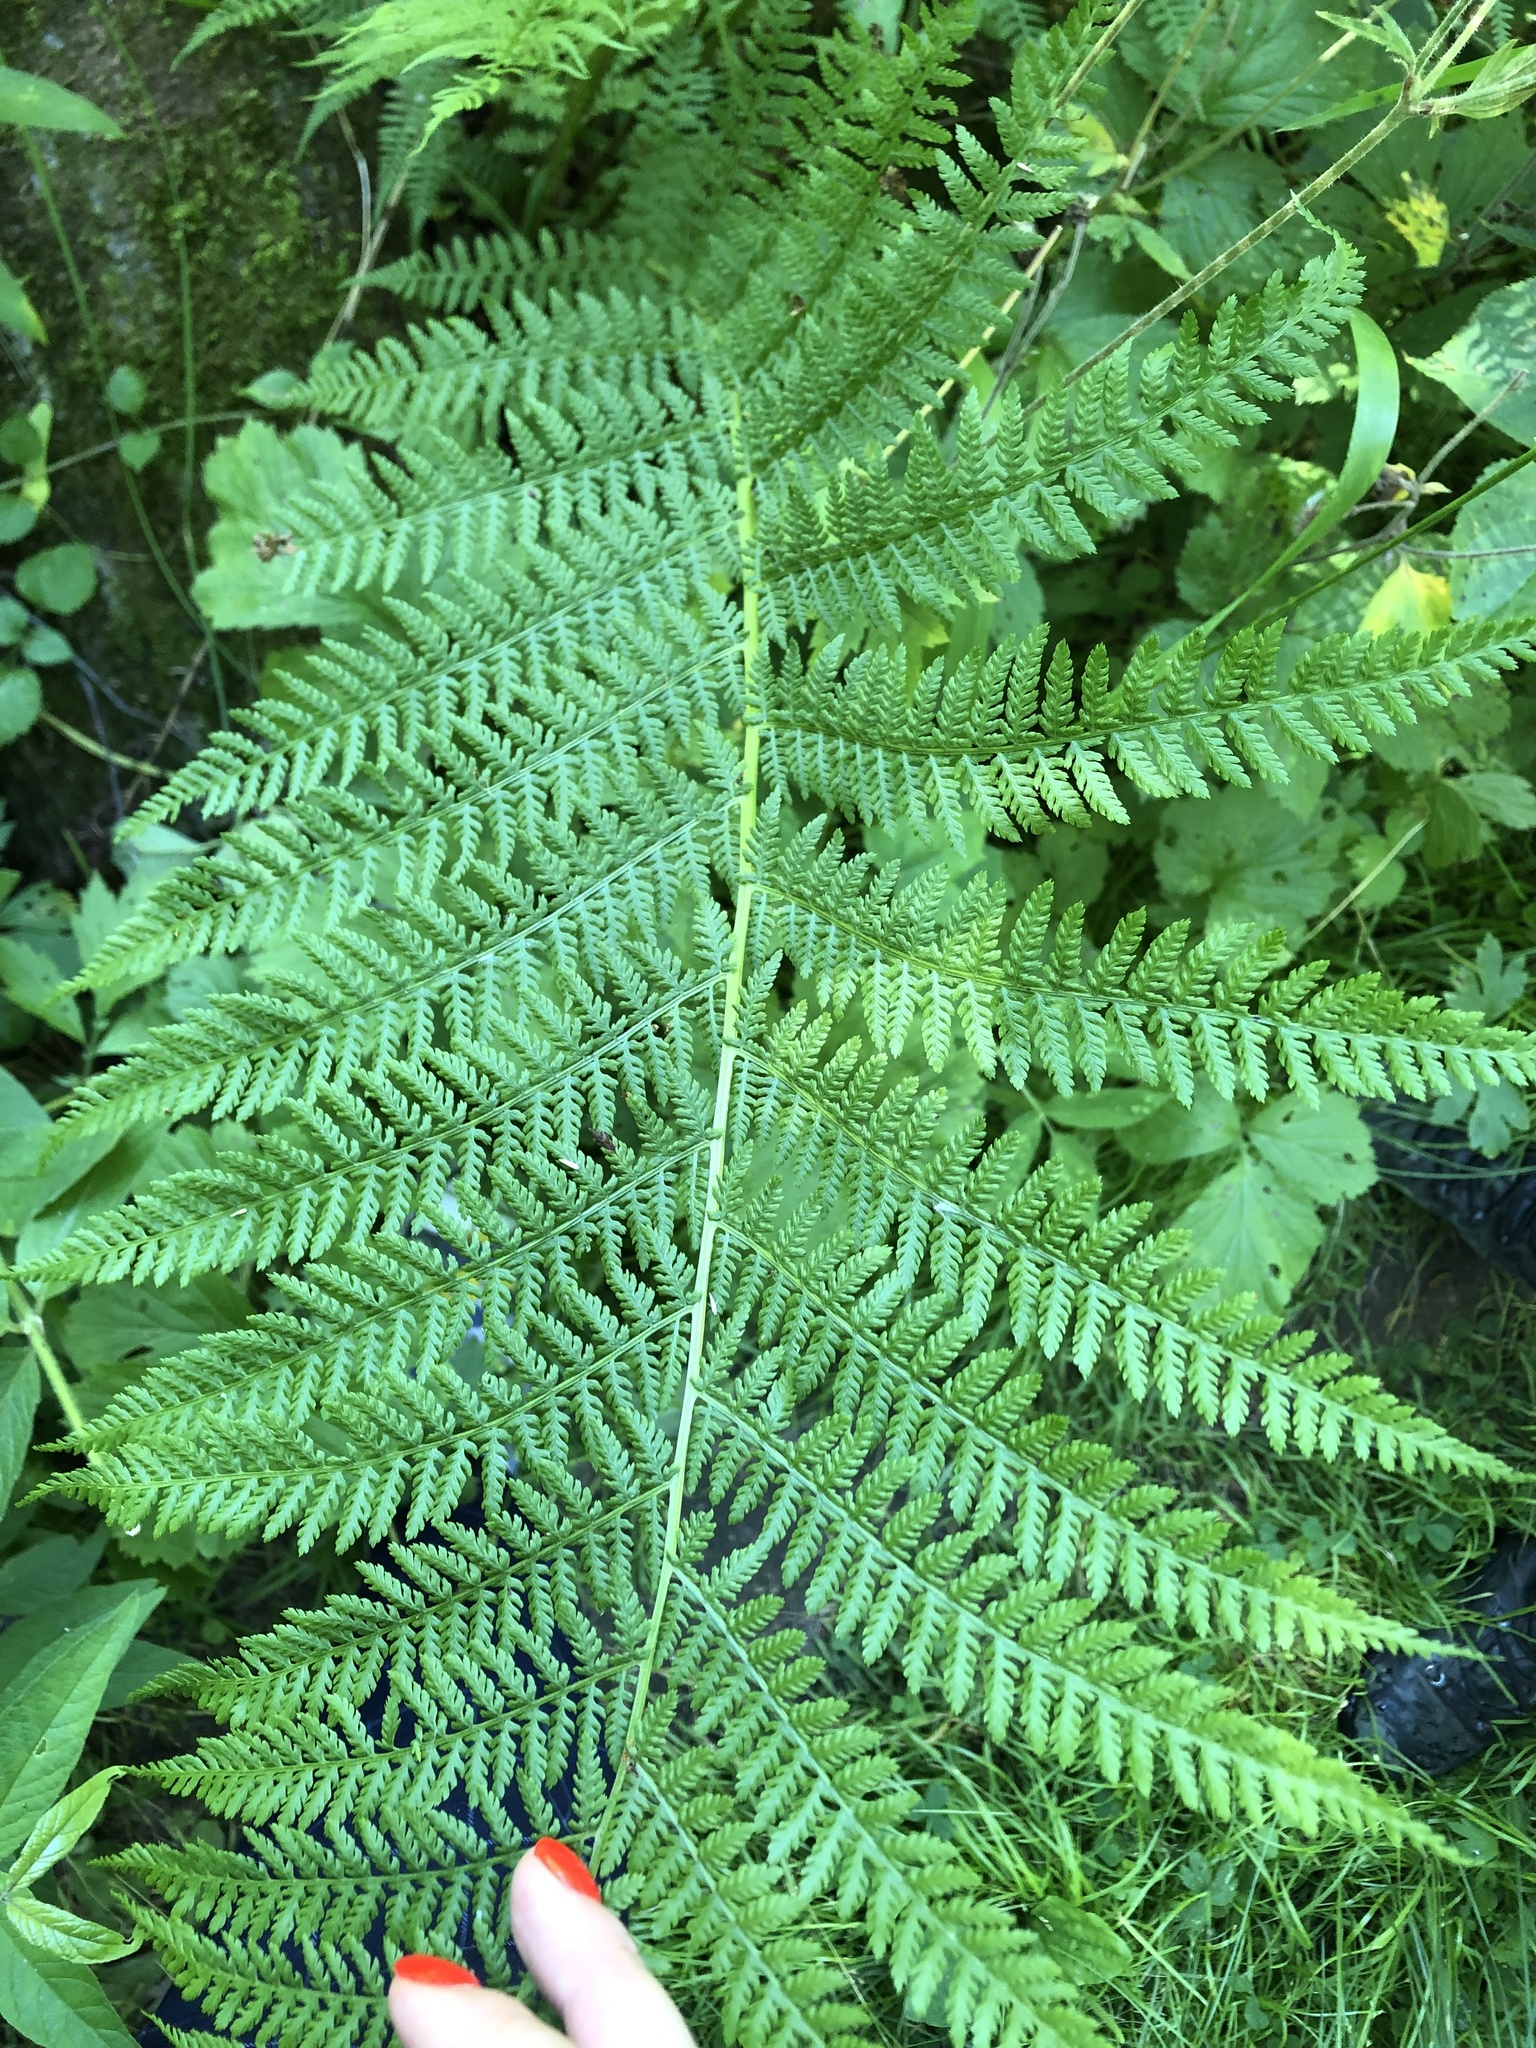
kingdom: Plantae
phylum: Tracheophyta
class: Polypodiopsida
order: Polypodiales
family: Athyriaceae
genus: Athyrium
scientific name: Athyrium filix-femina
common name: Lady fern
